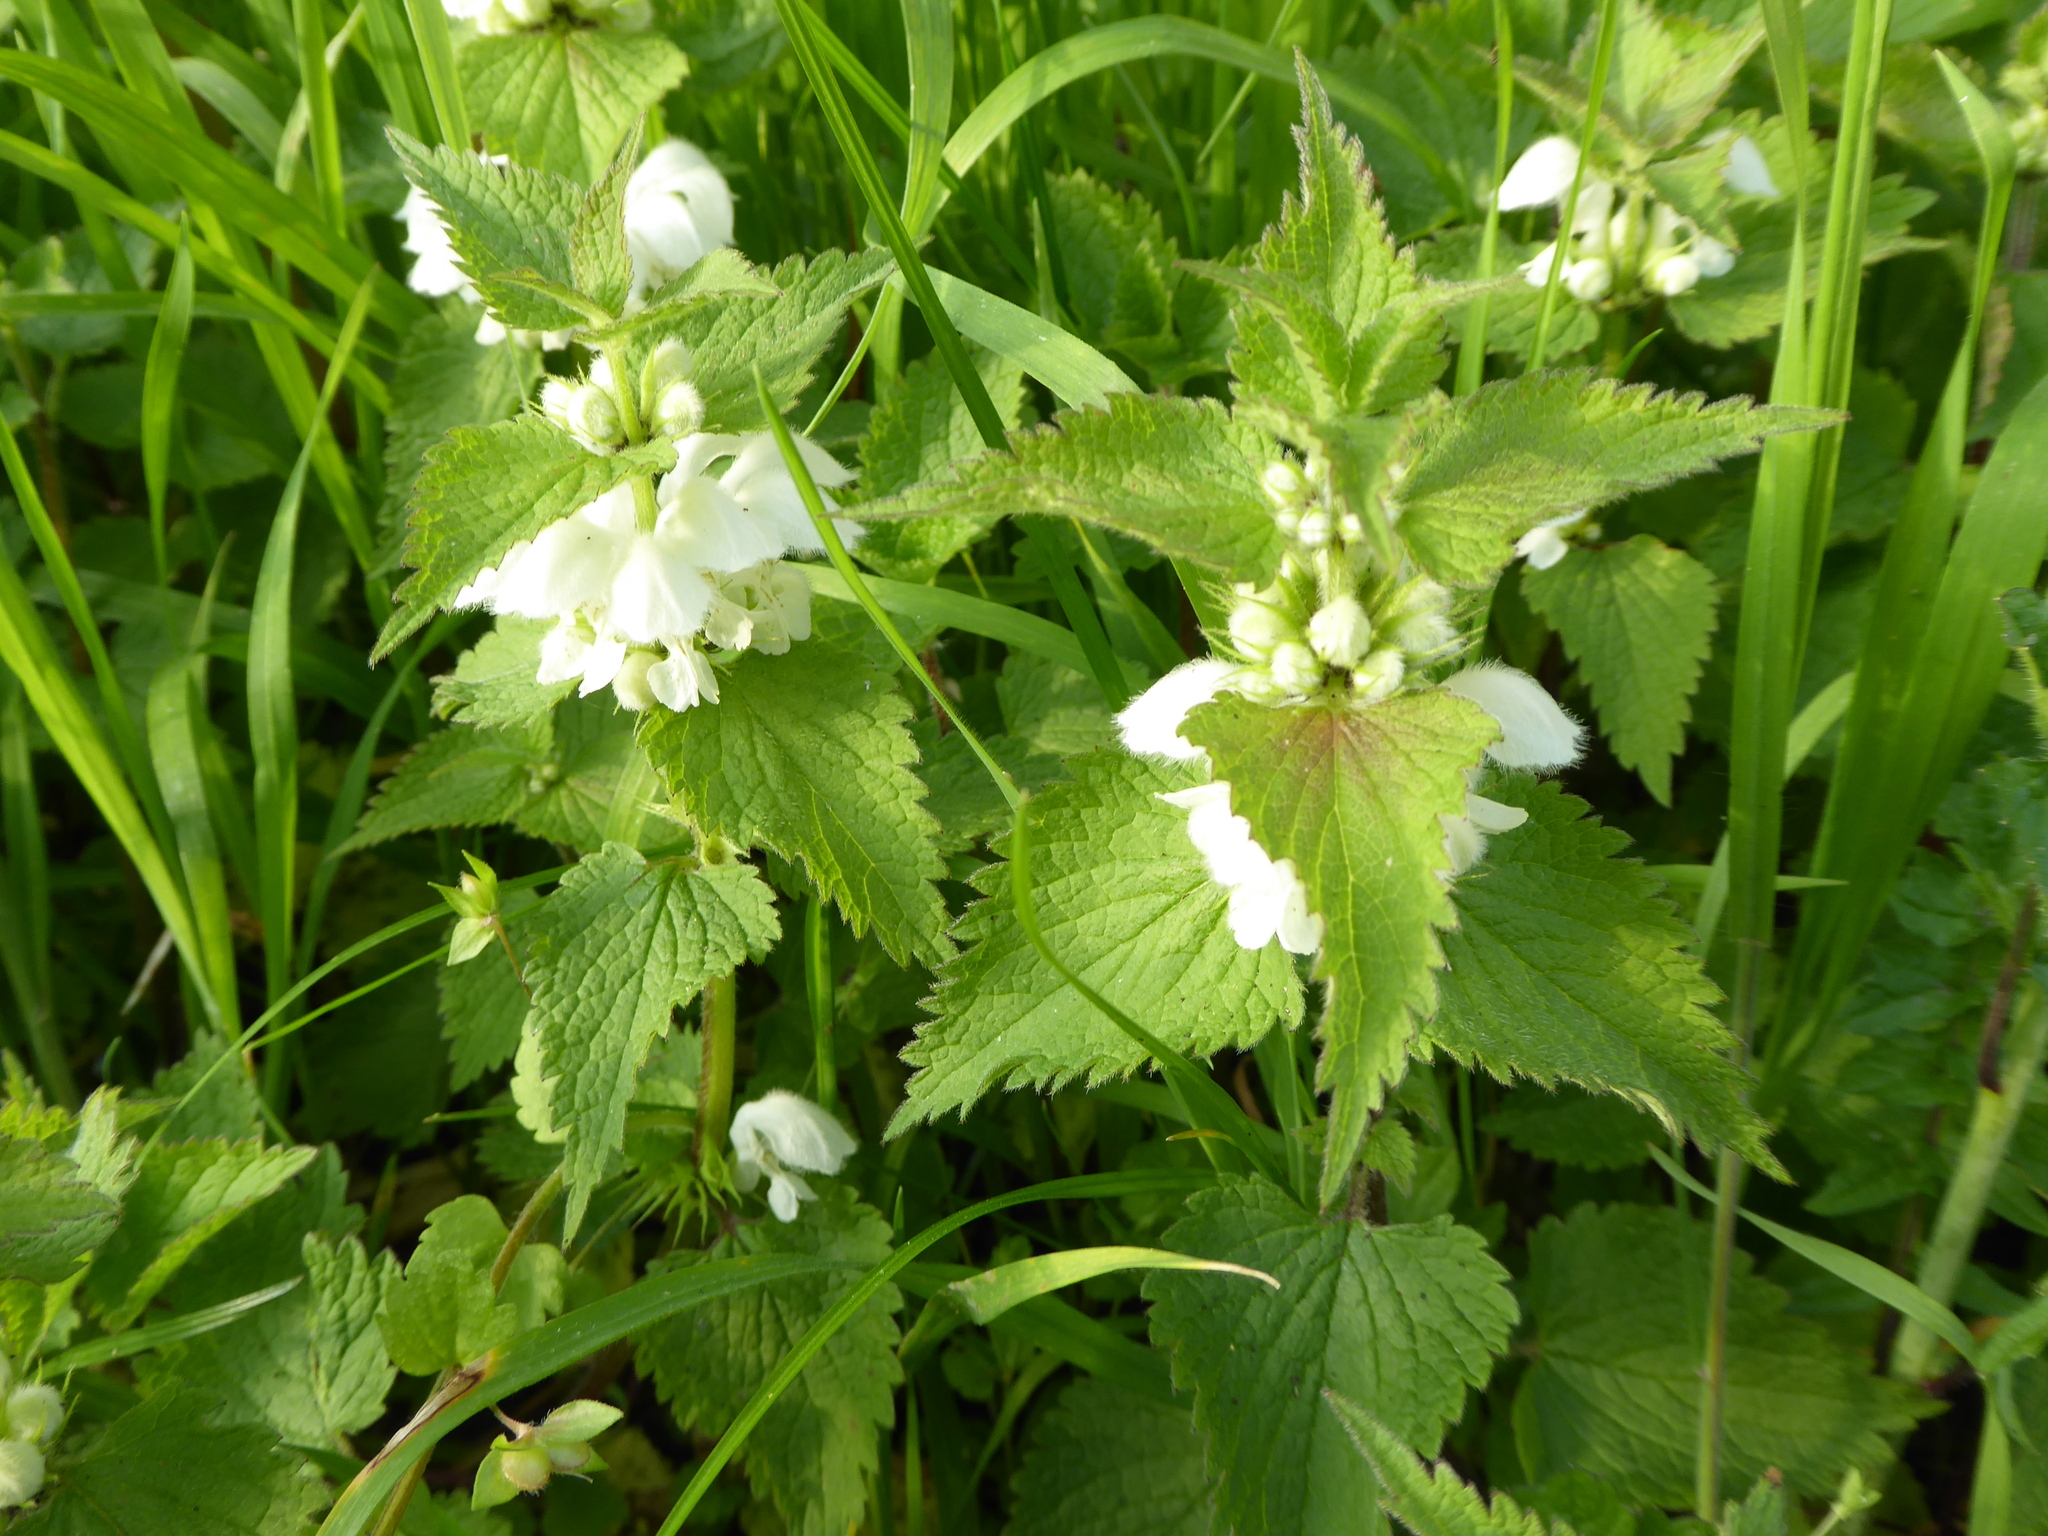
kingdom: Plantae
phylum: Tracheophyta
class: Magnoliopsida
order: Lamiales
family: Lamiaceae
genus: Lamium
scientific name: Lamium album
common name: White dead-nettle
